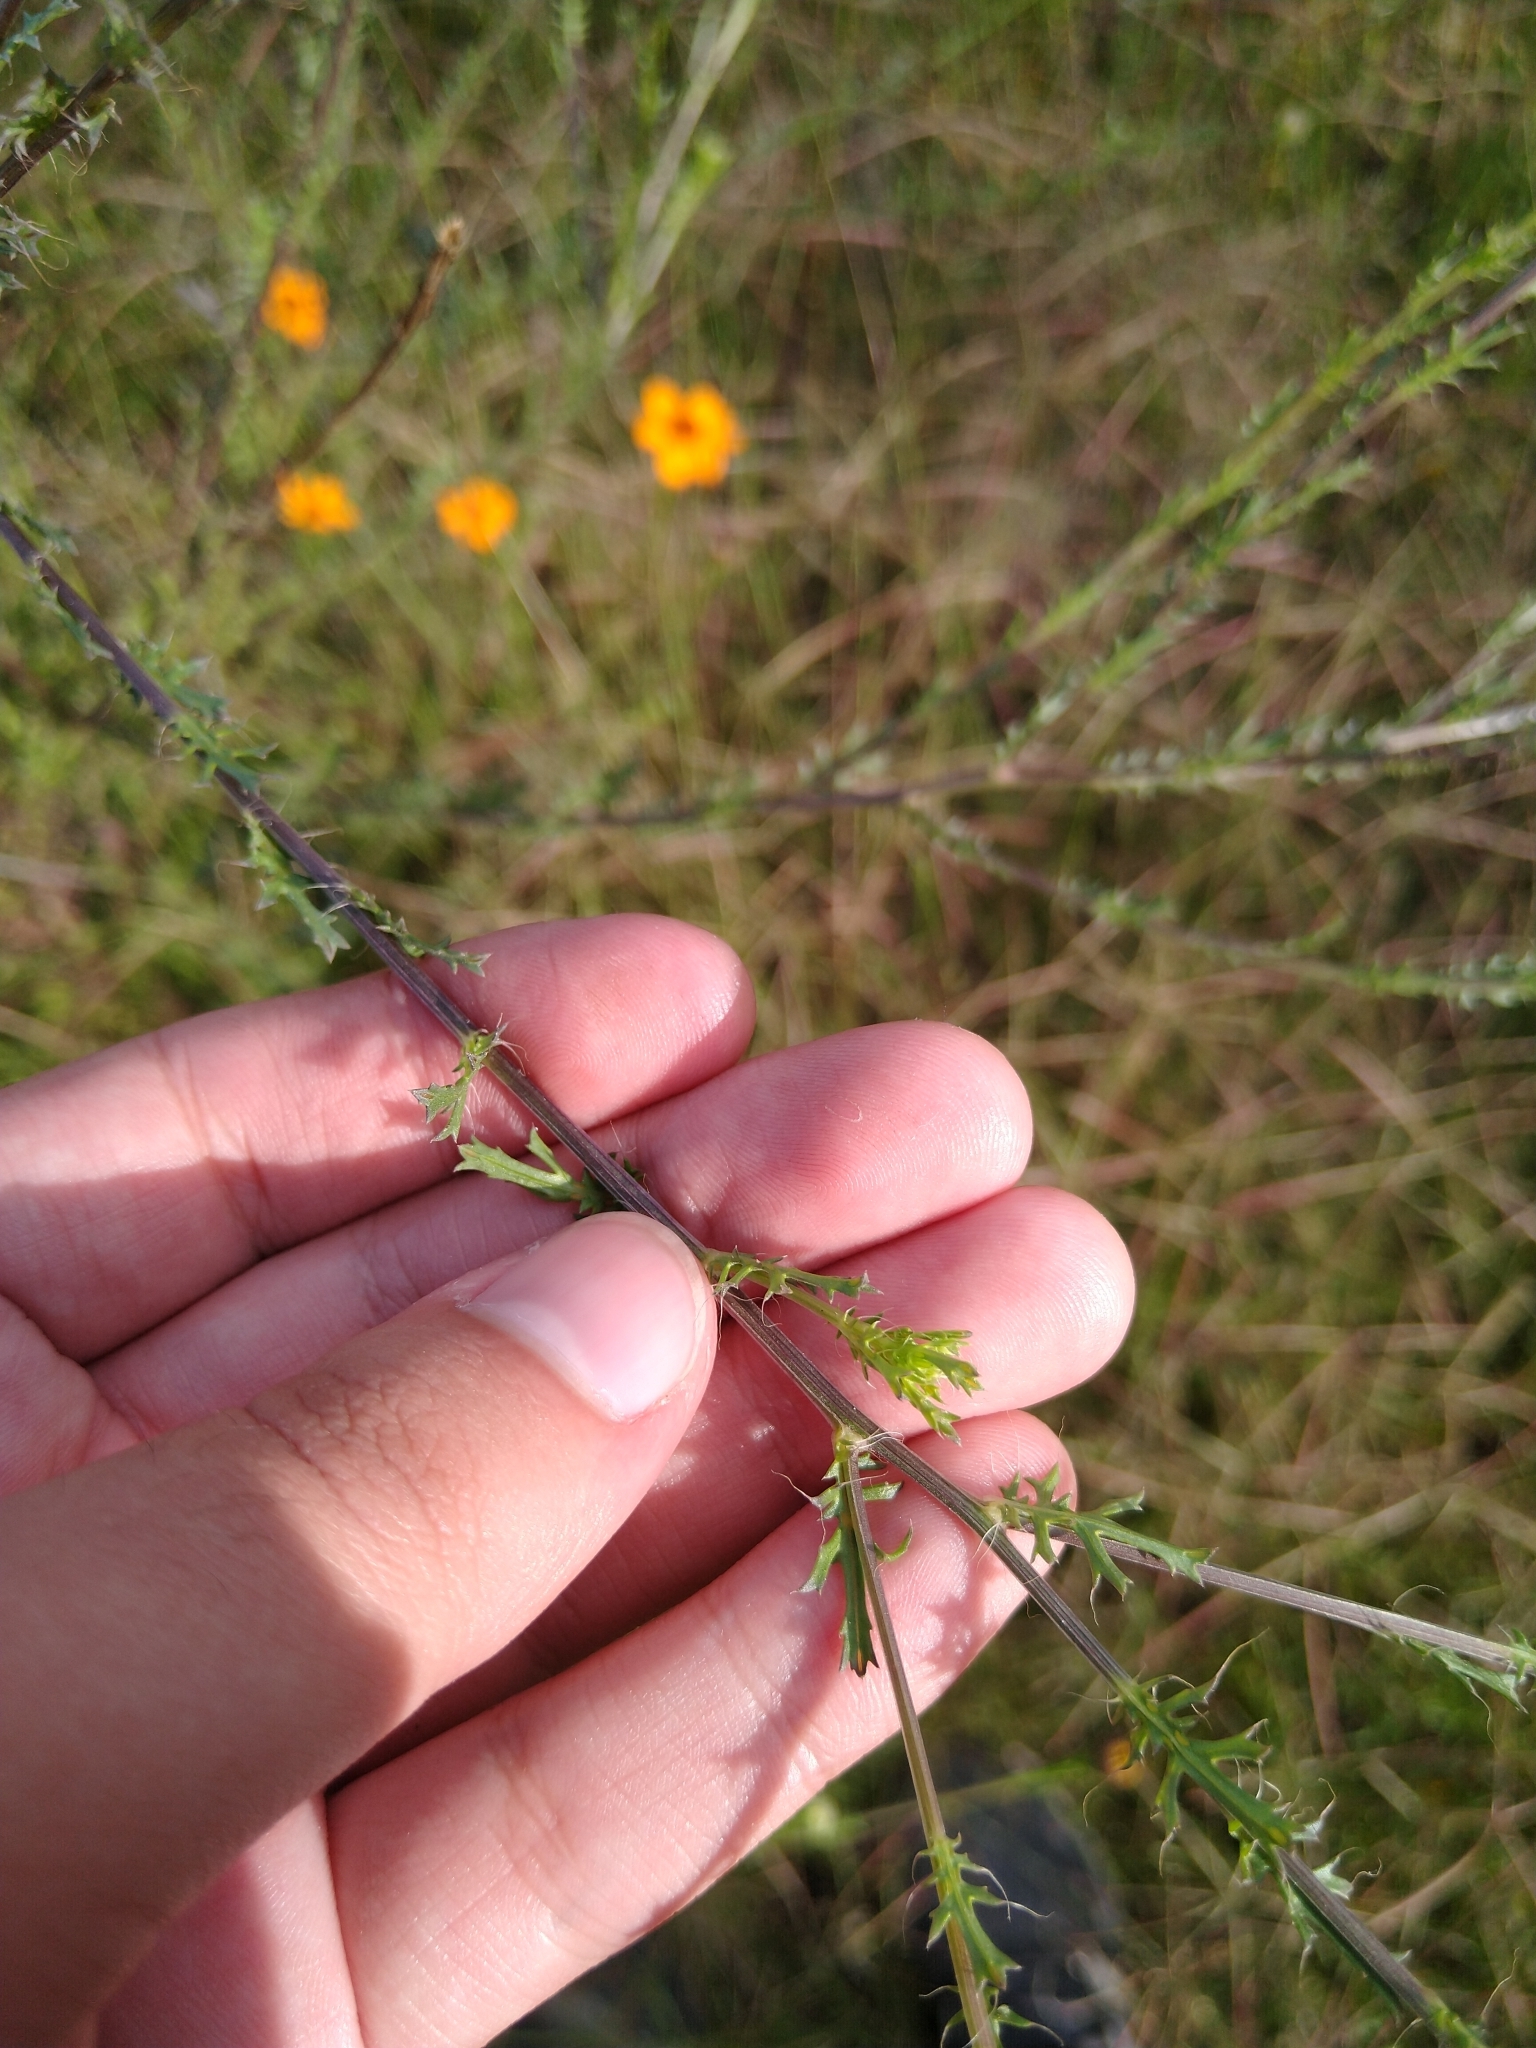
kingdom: Plantae
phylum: Tracheophyta
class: Magnoliopsida
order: Asterales
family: Asteraceae
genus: Adenophyllum
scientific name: Adenophyllum cancellatum
